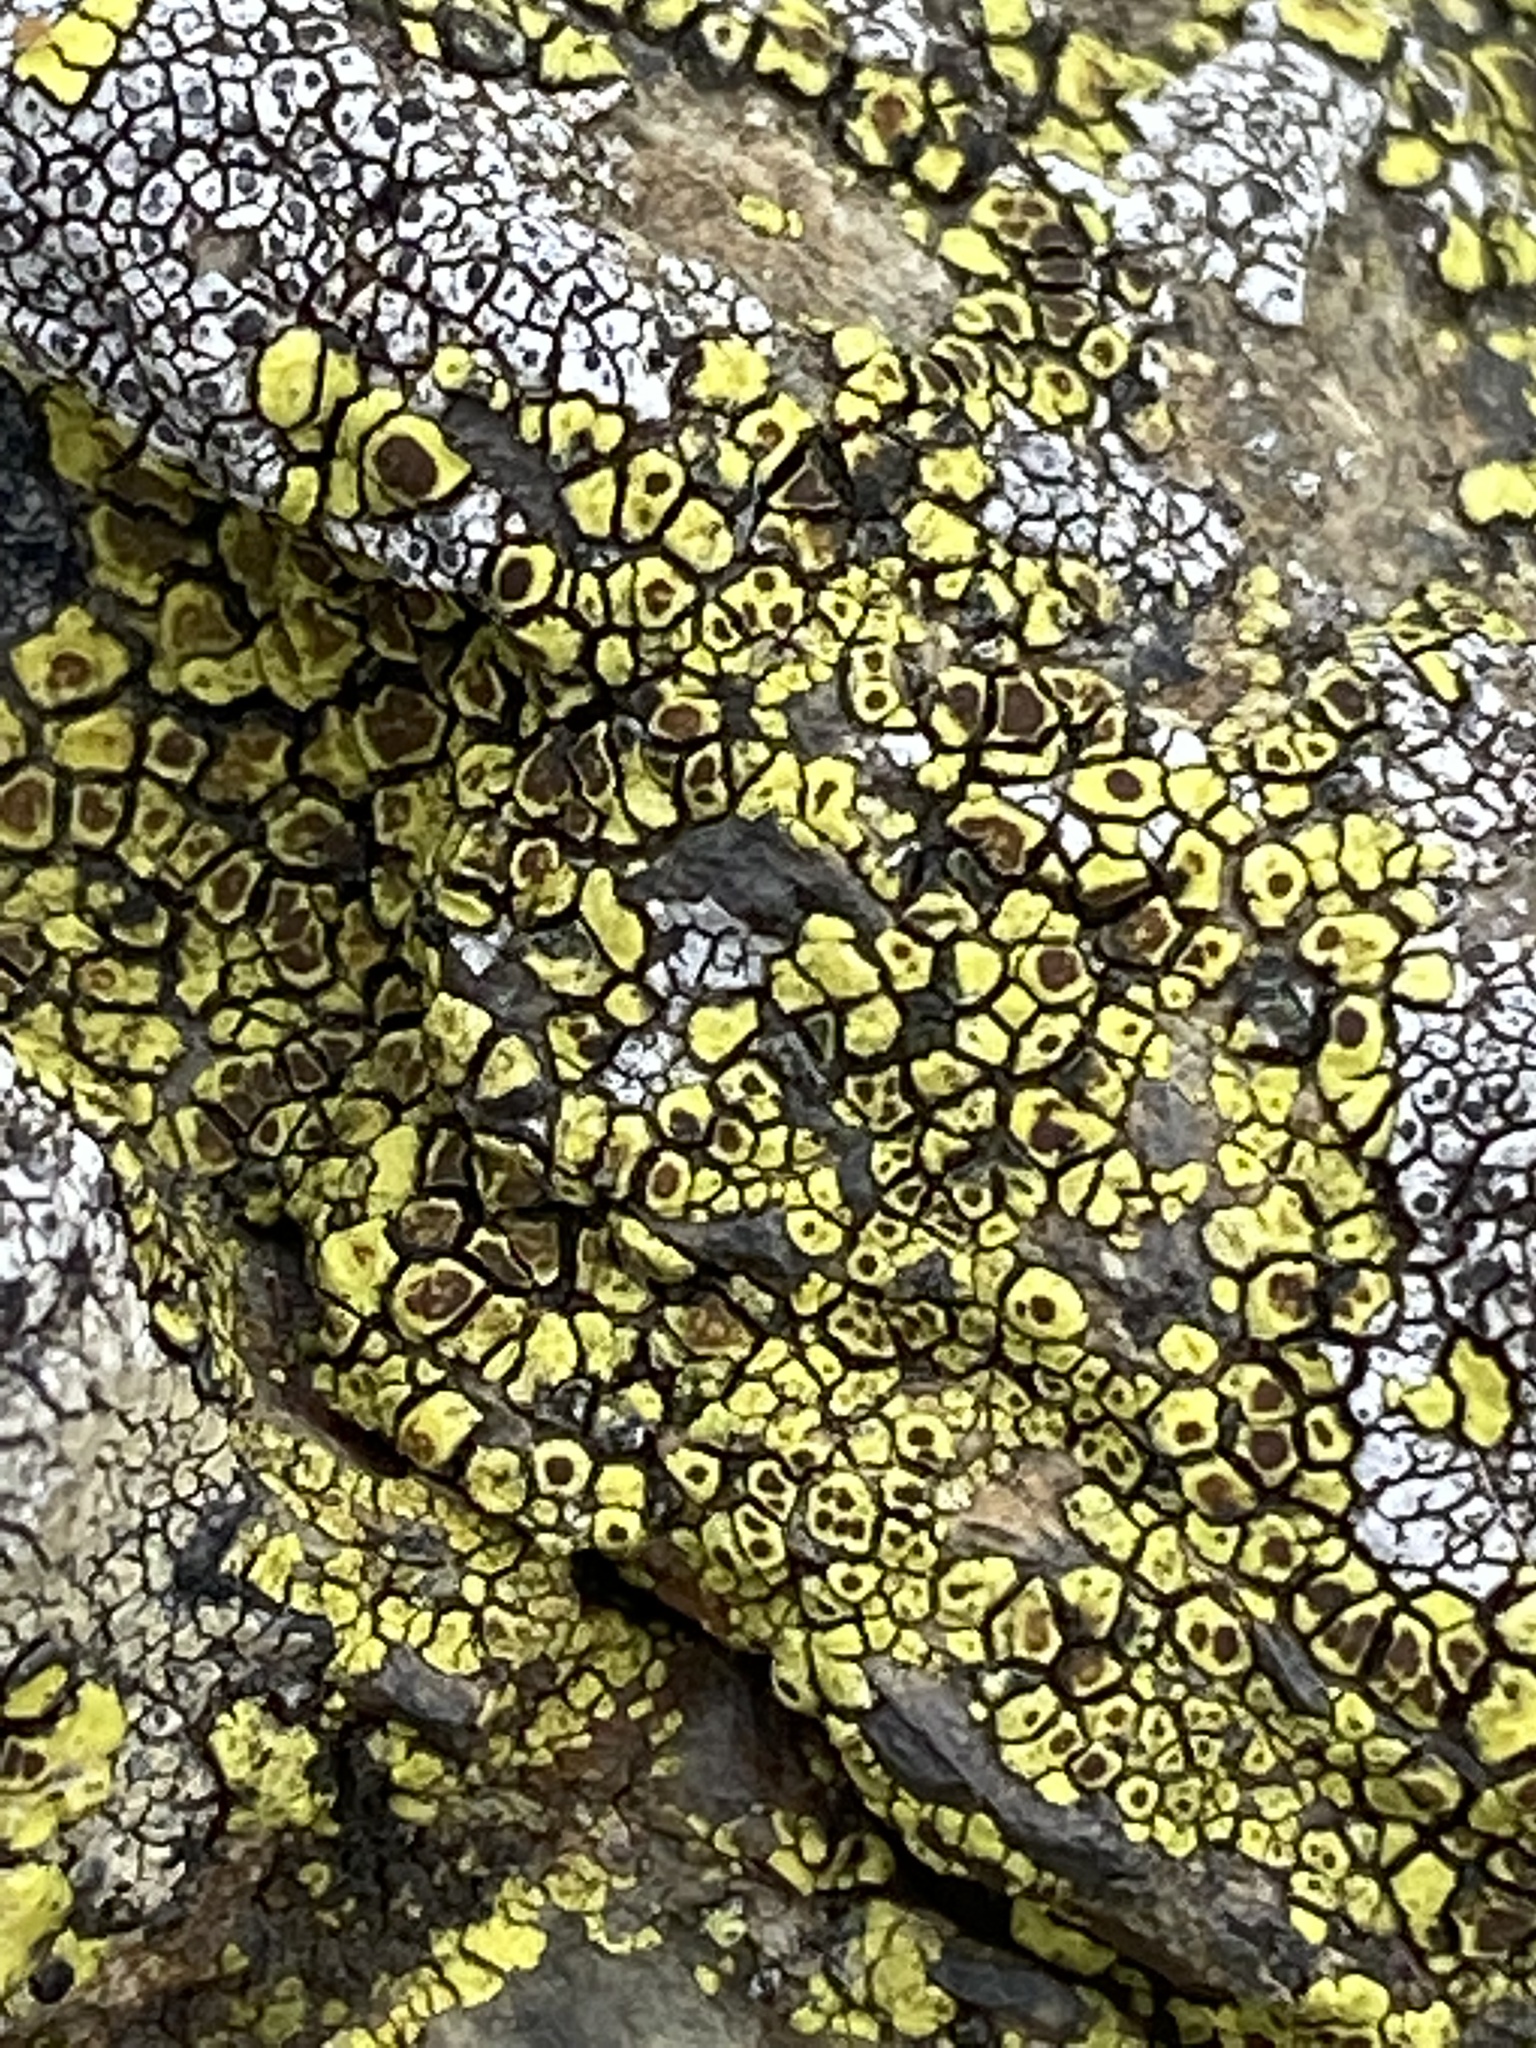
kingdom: Fungi
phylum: Ascomycota
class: Lecanoromycetes
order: Acarosporales
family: Acarosporaceae
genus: Acarospora
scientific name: Acarospora socialis
